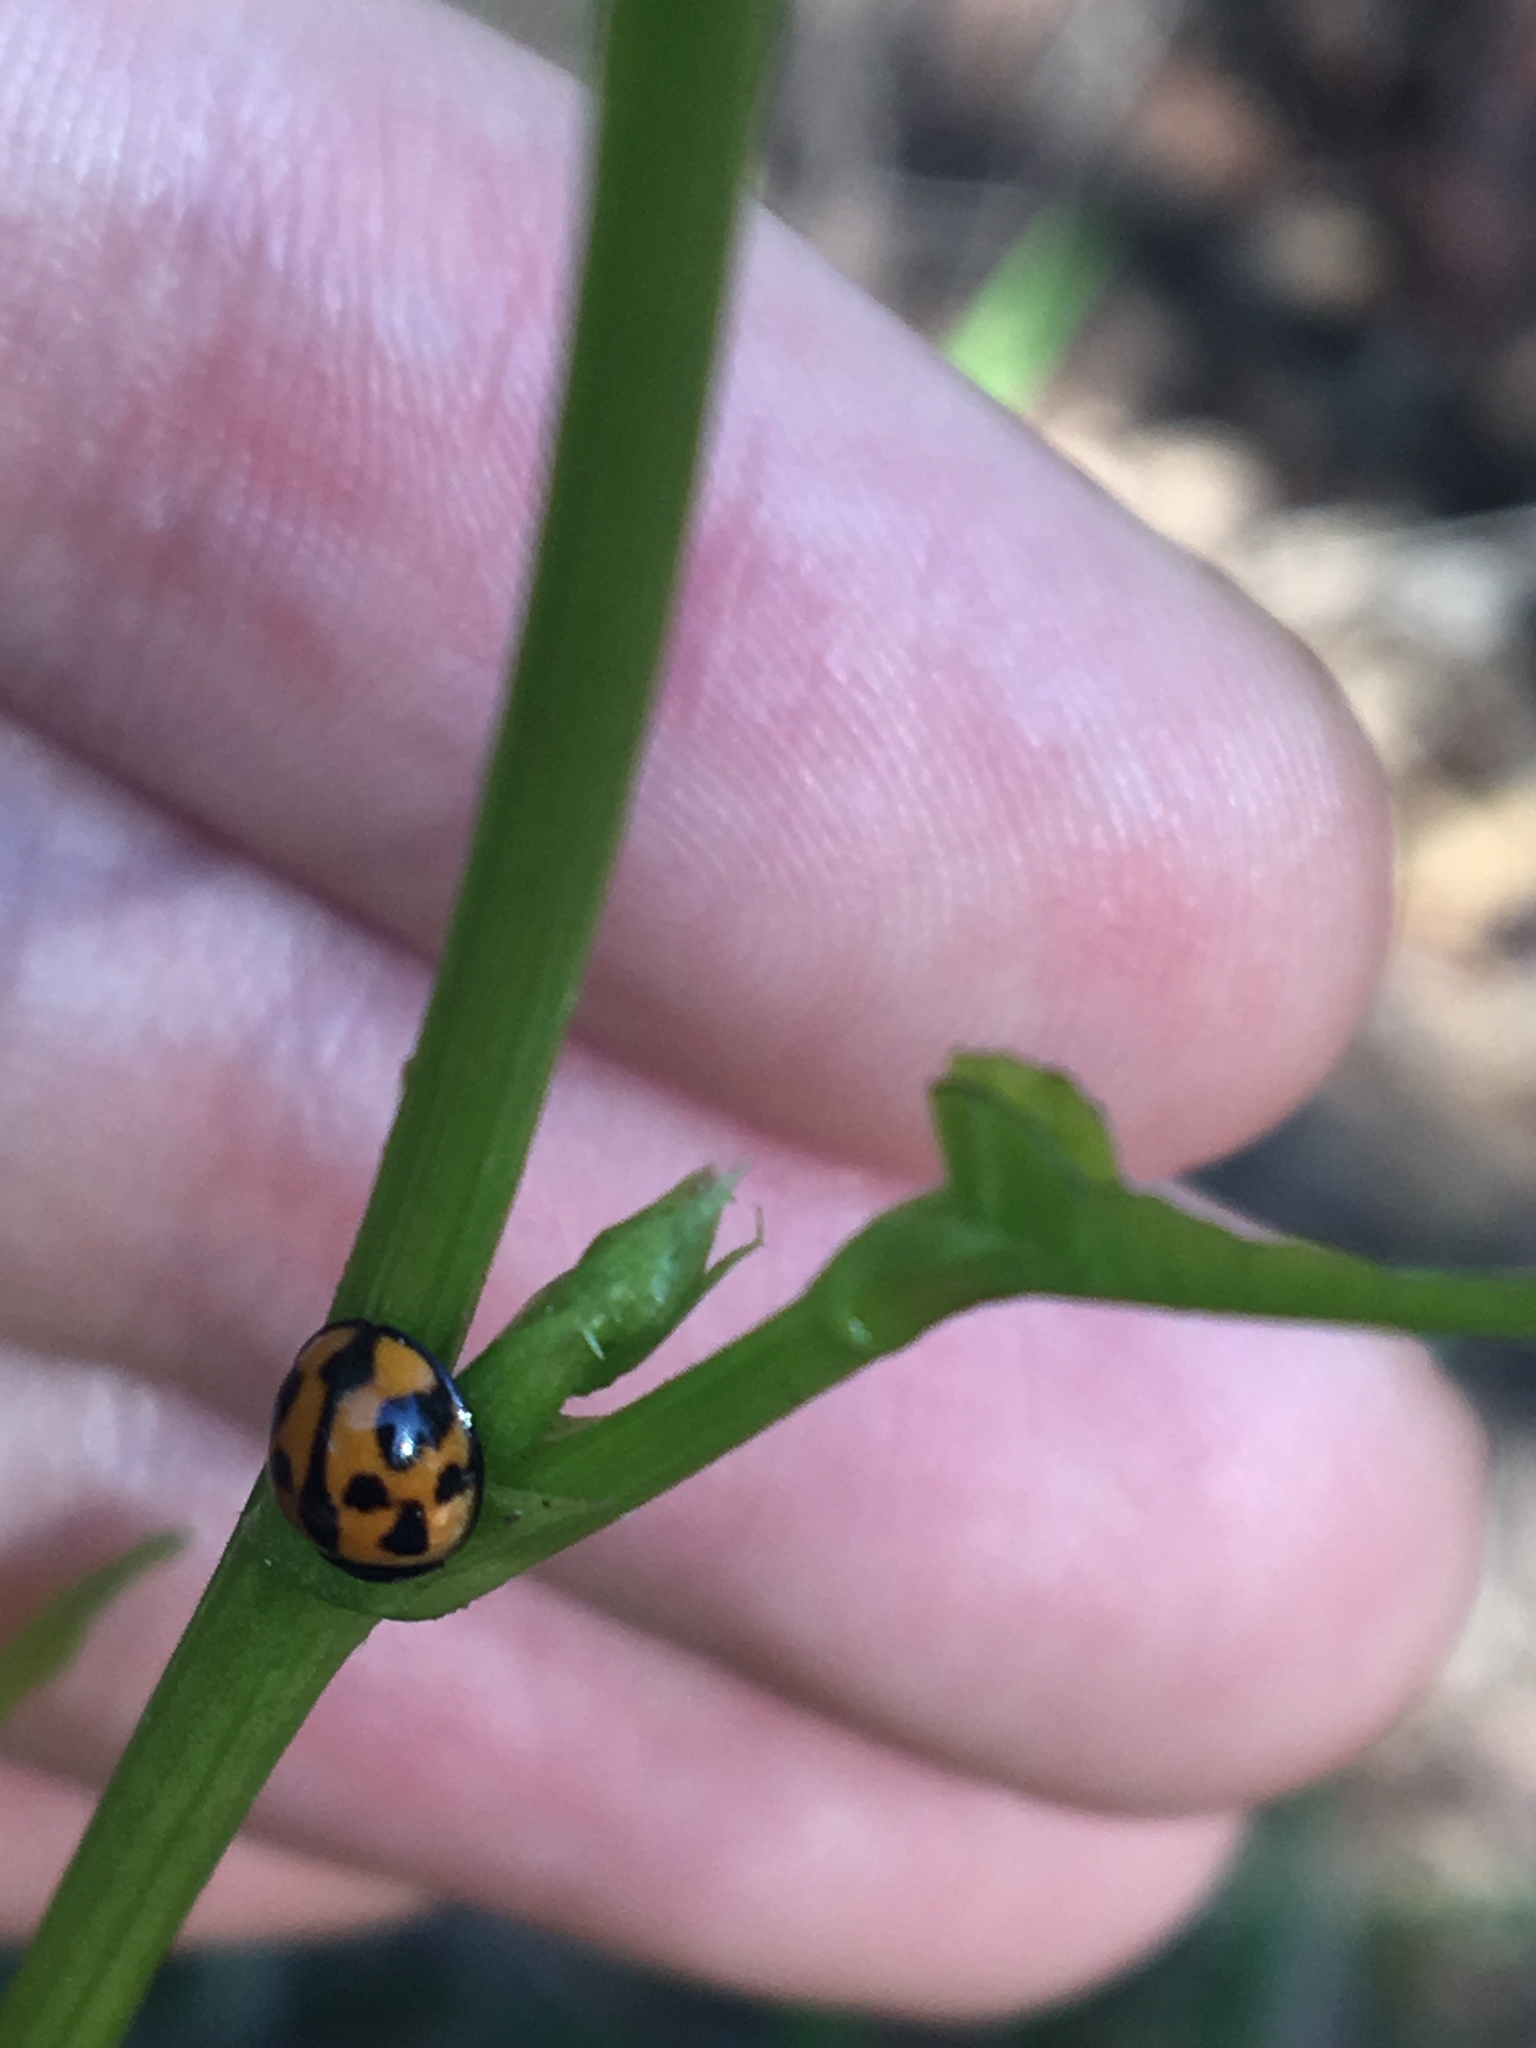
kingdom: Animalia
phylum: Arthropoda
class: Insecta
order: Coleoptera
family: Coccinellidae
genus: Coelophora
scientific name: Coelophora inaequalis
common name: Common australian lady beetle
